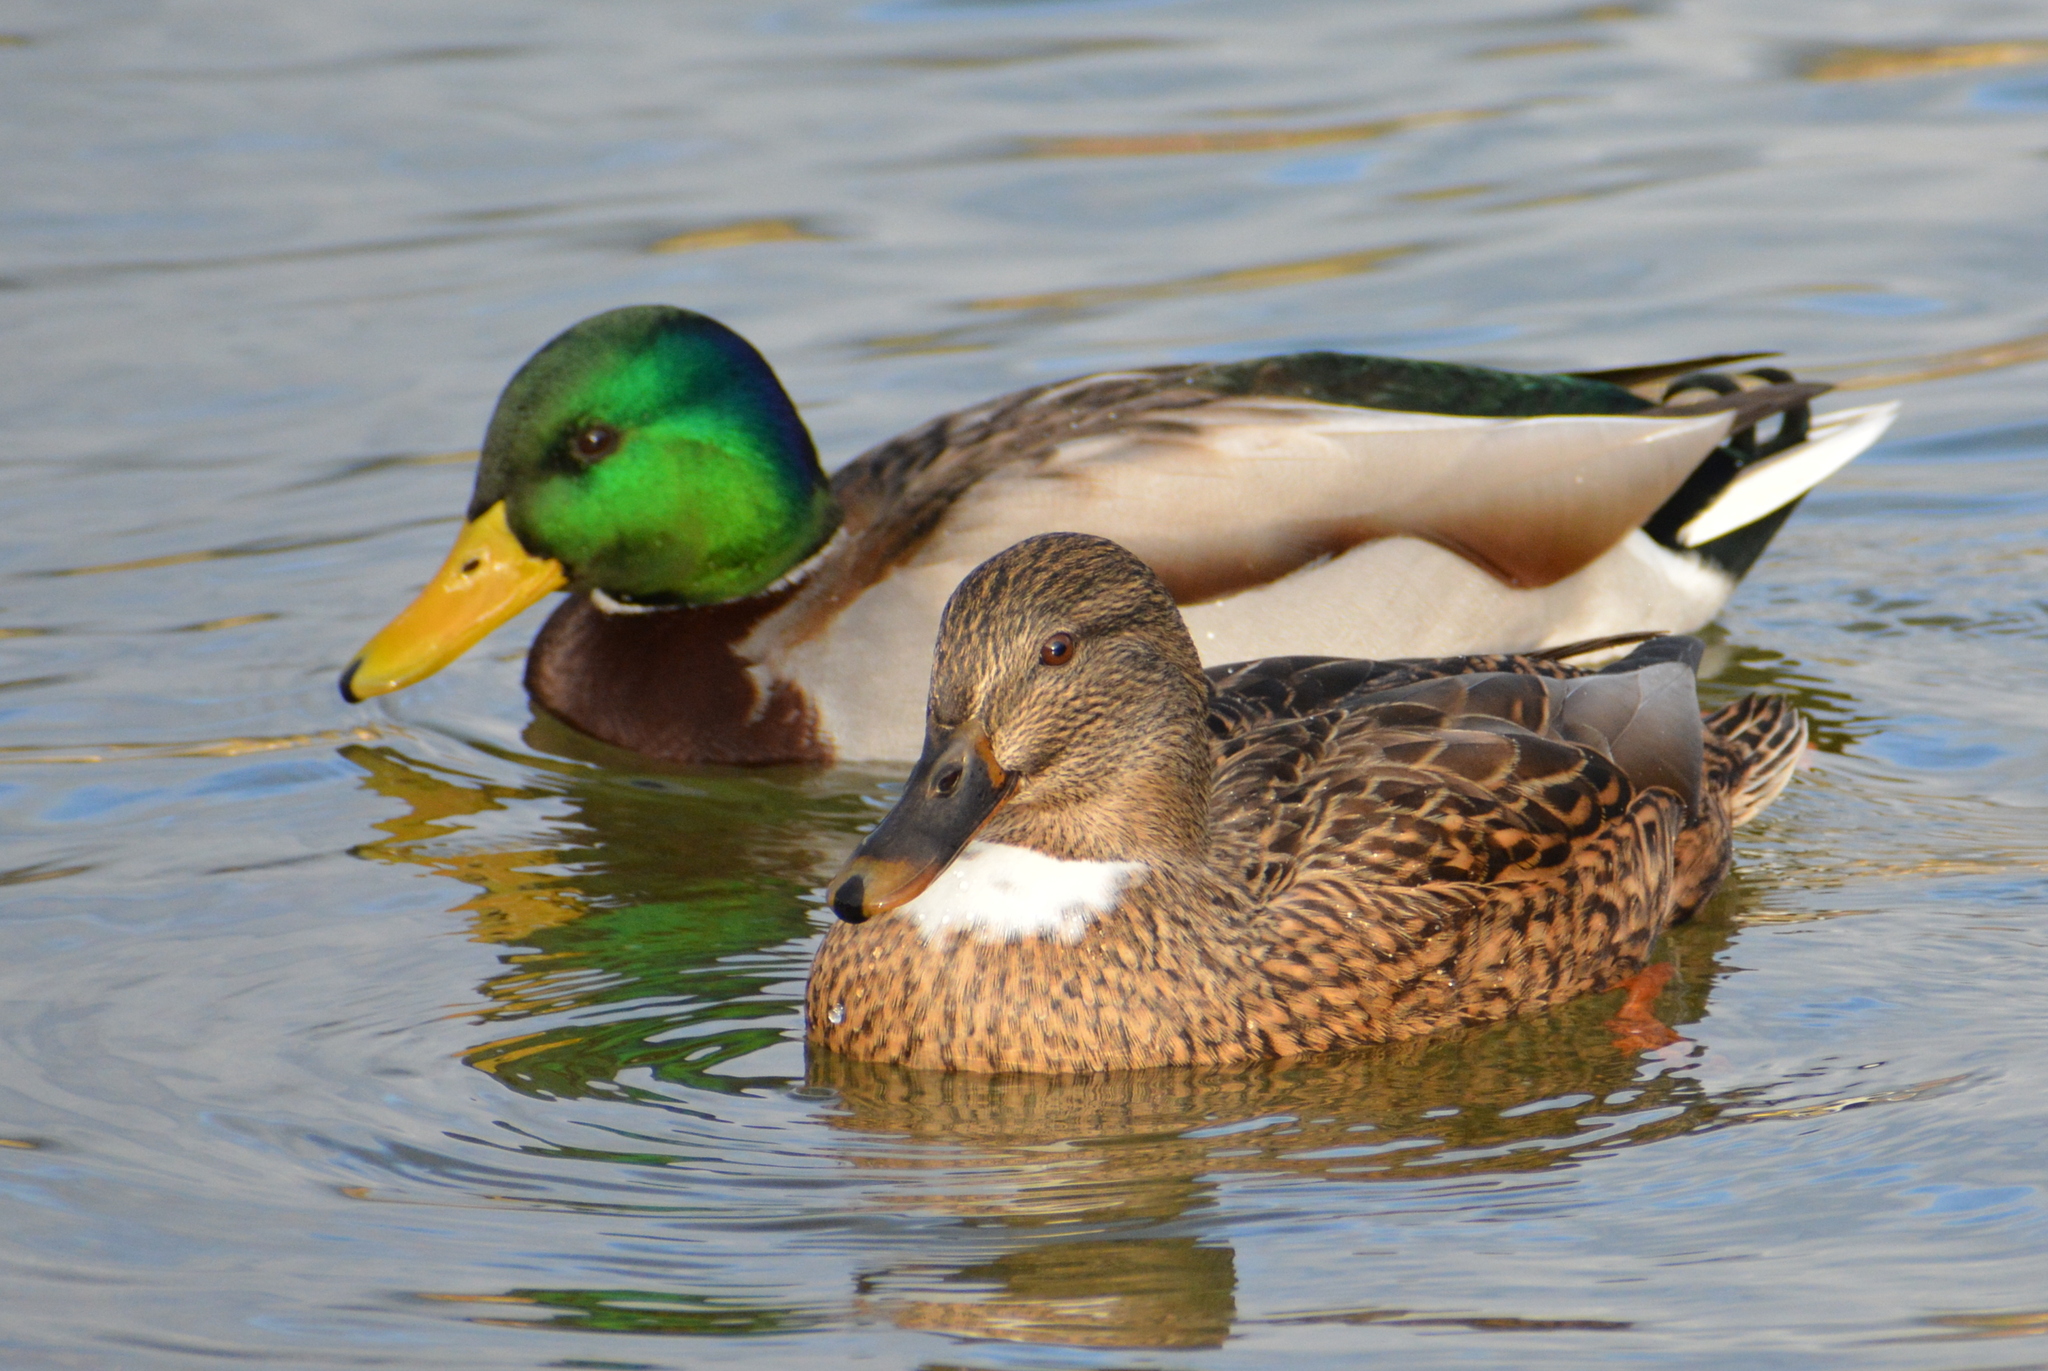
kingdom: Animalia
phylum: Chordata
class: Aves
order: Anseriformes
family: Anatidae
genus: Anas
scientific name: Anas platyrhynchos
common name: Mallard
